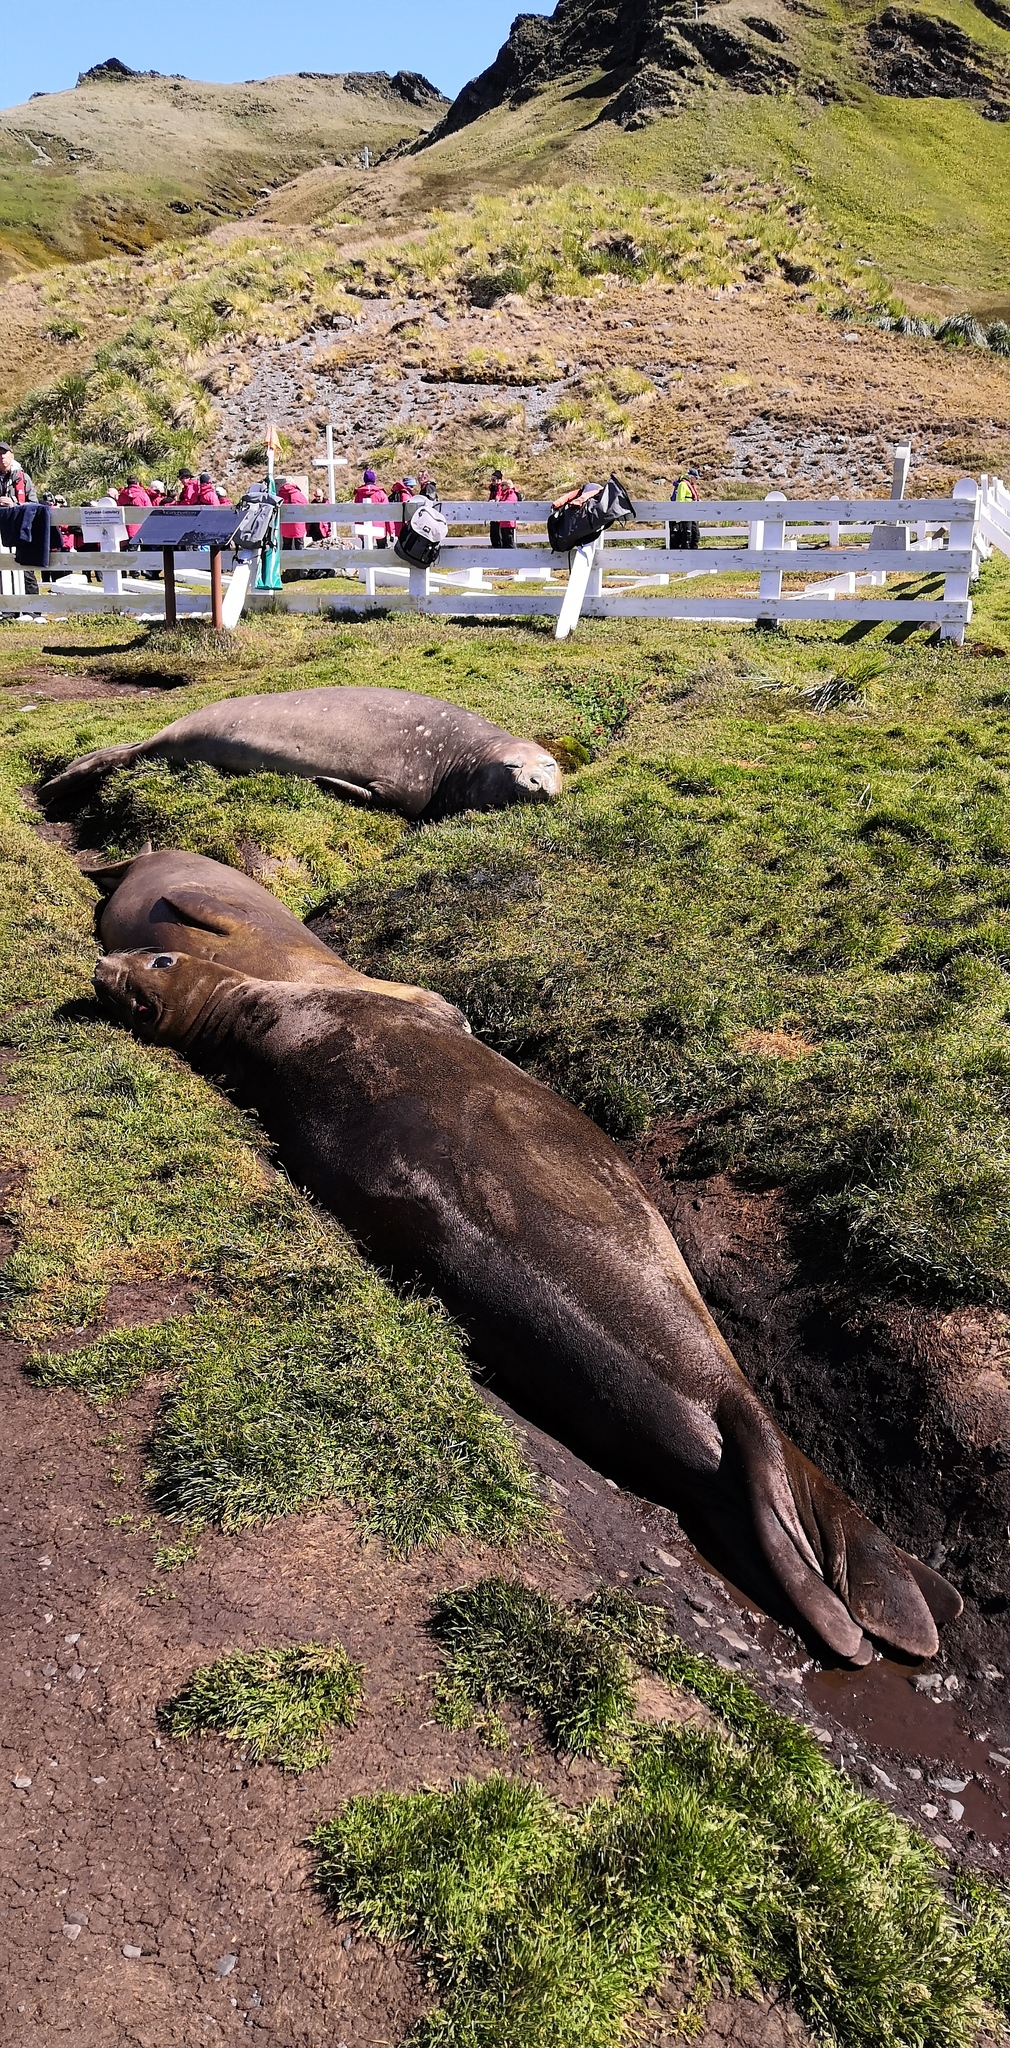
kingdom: Animalia
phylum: Chordata
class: Mammalia
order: Carnivora
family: Phocidae
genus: Mirounga
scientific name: Mirounga leonina
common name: Southern elephant seal
